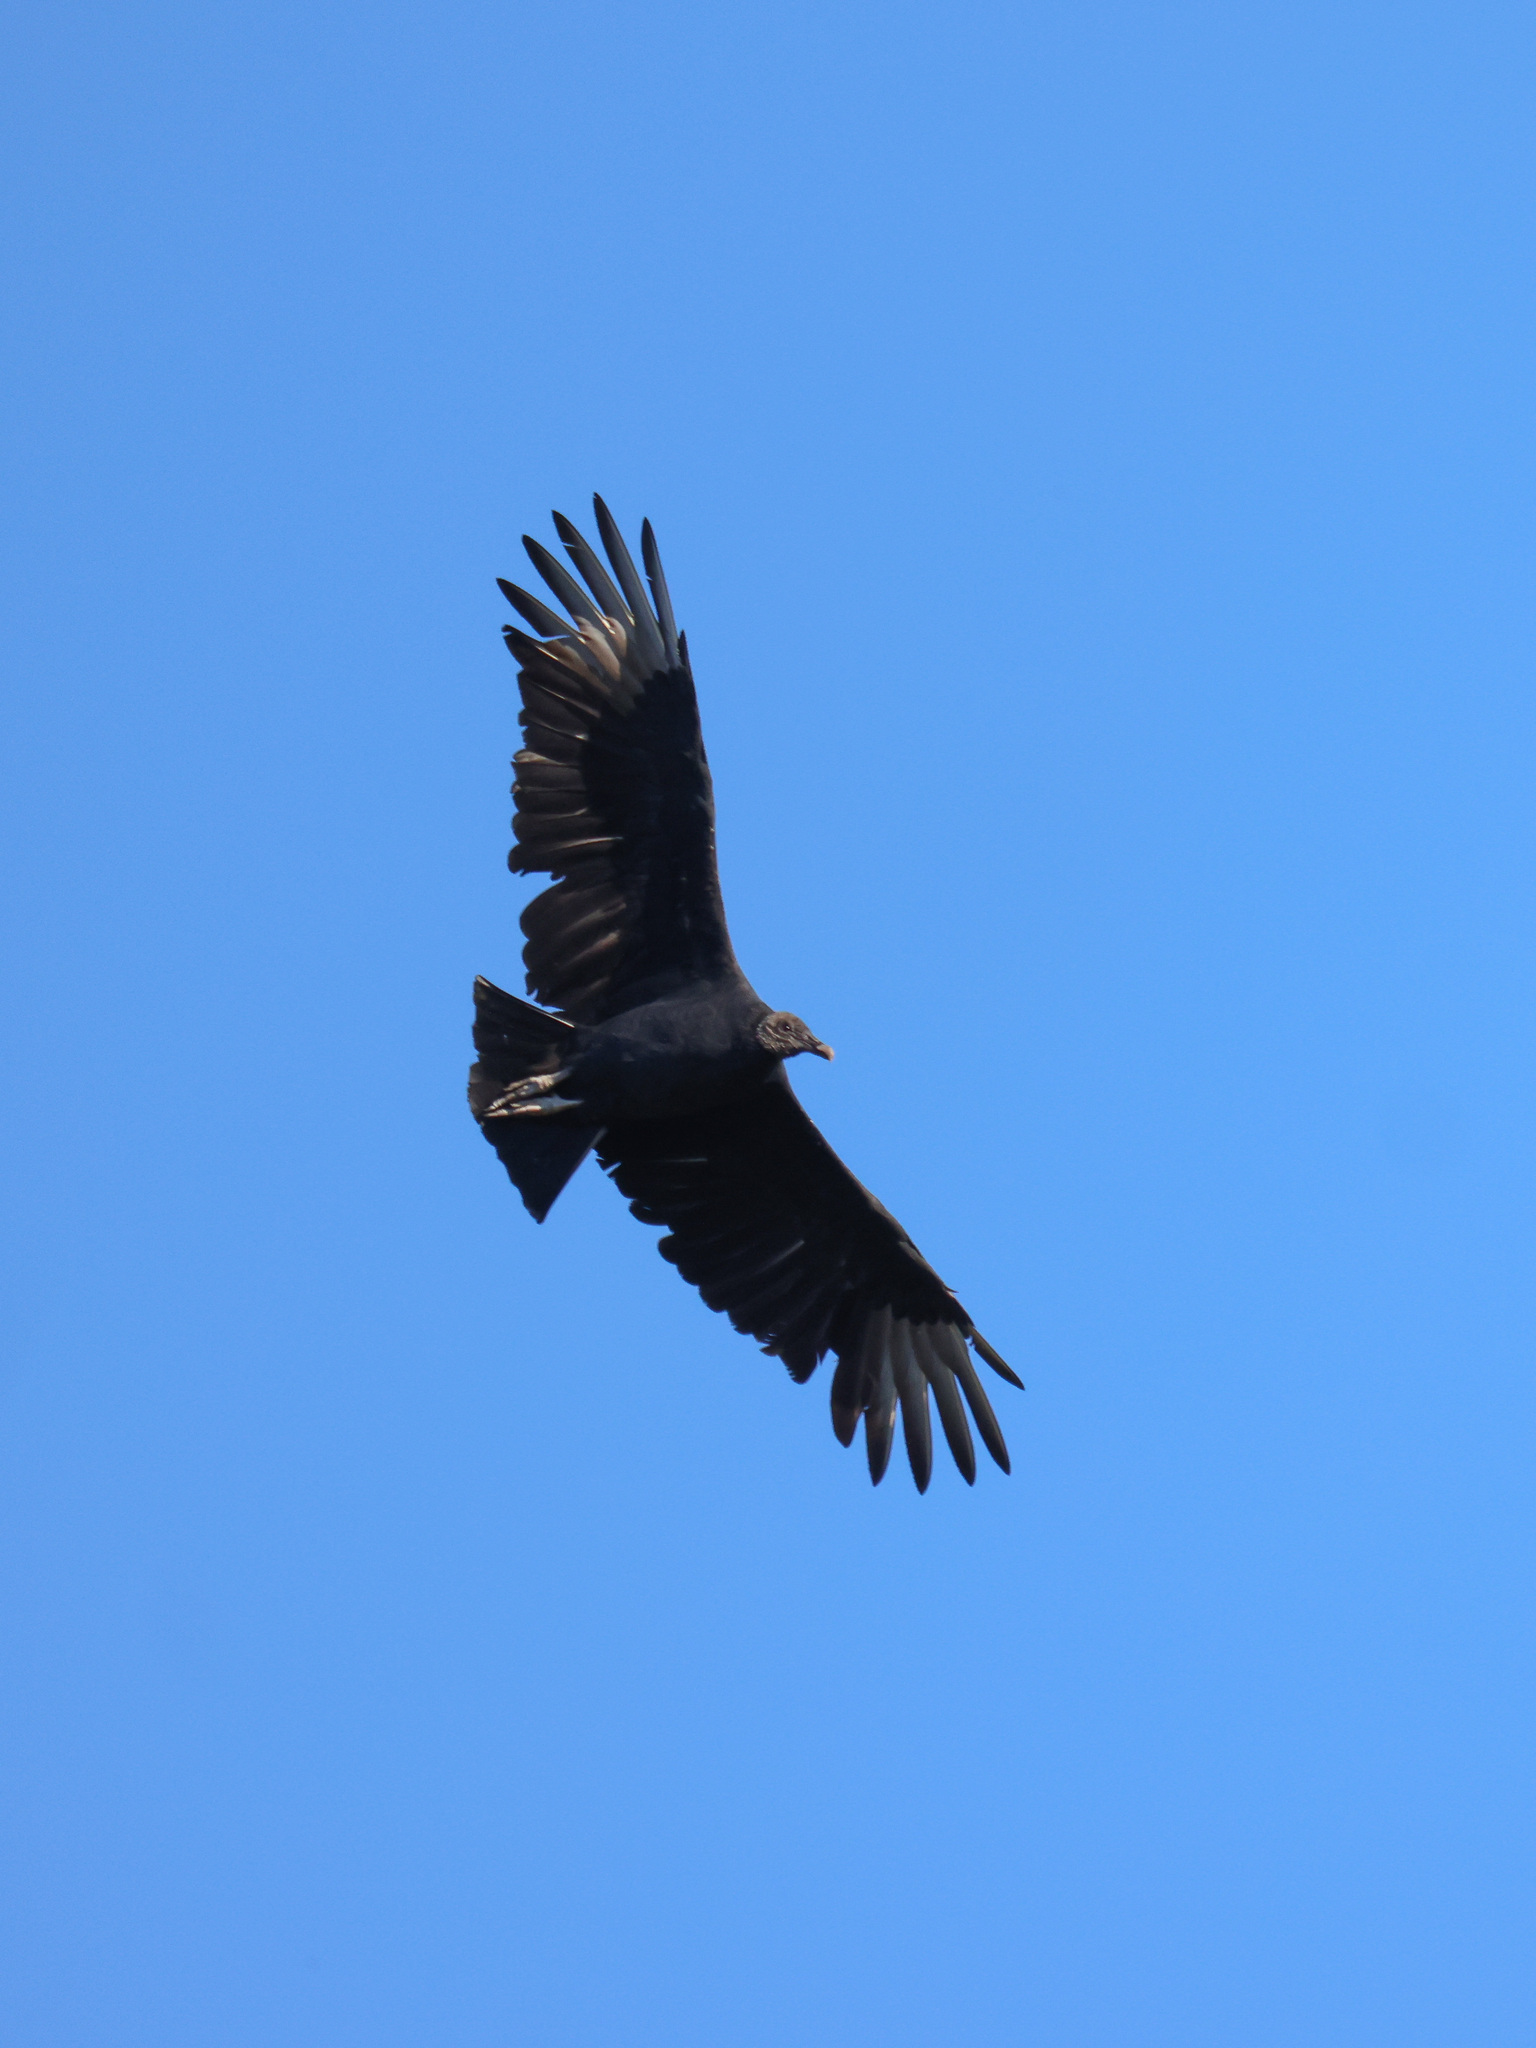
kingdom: Animalia
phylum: Chordata
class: Aves
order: Accipitriformes
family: Cathartidae
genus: Coragyps
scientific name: Coragyps atratus
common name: Black vulture
